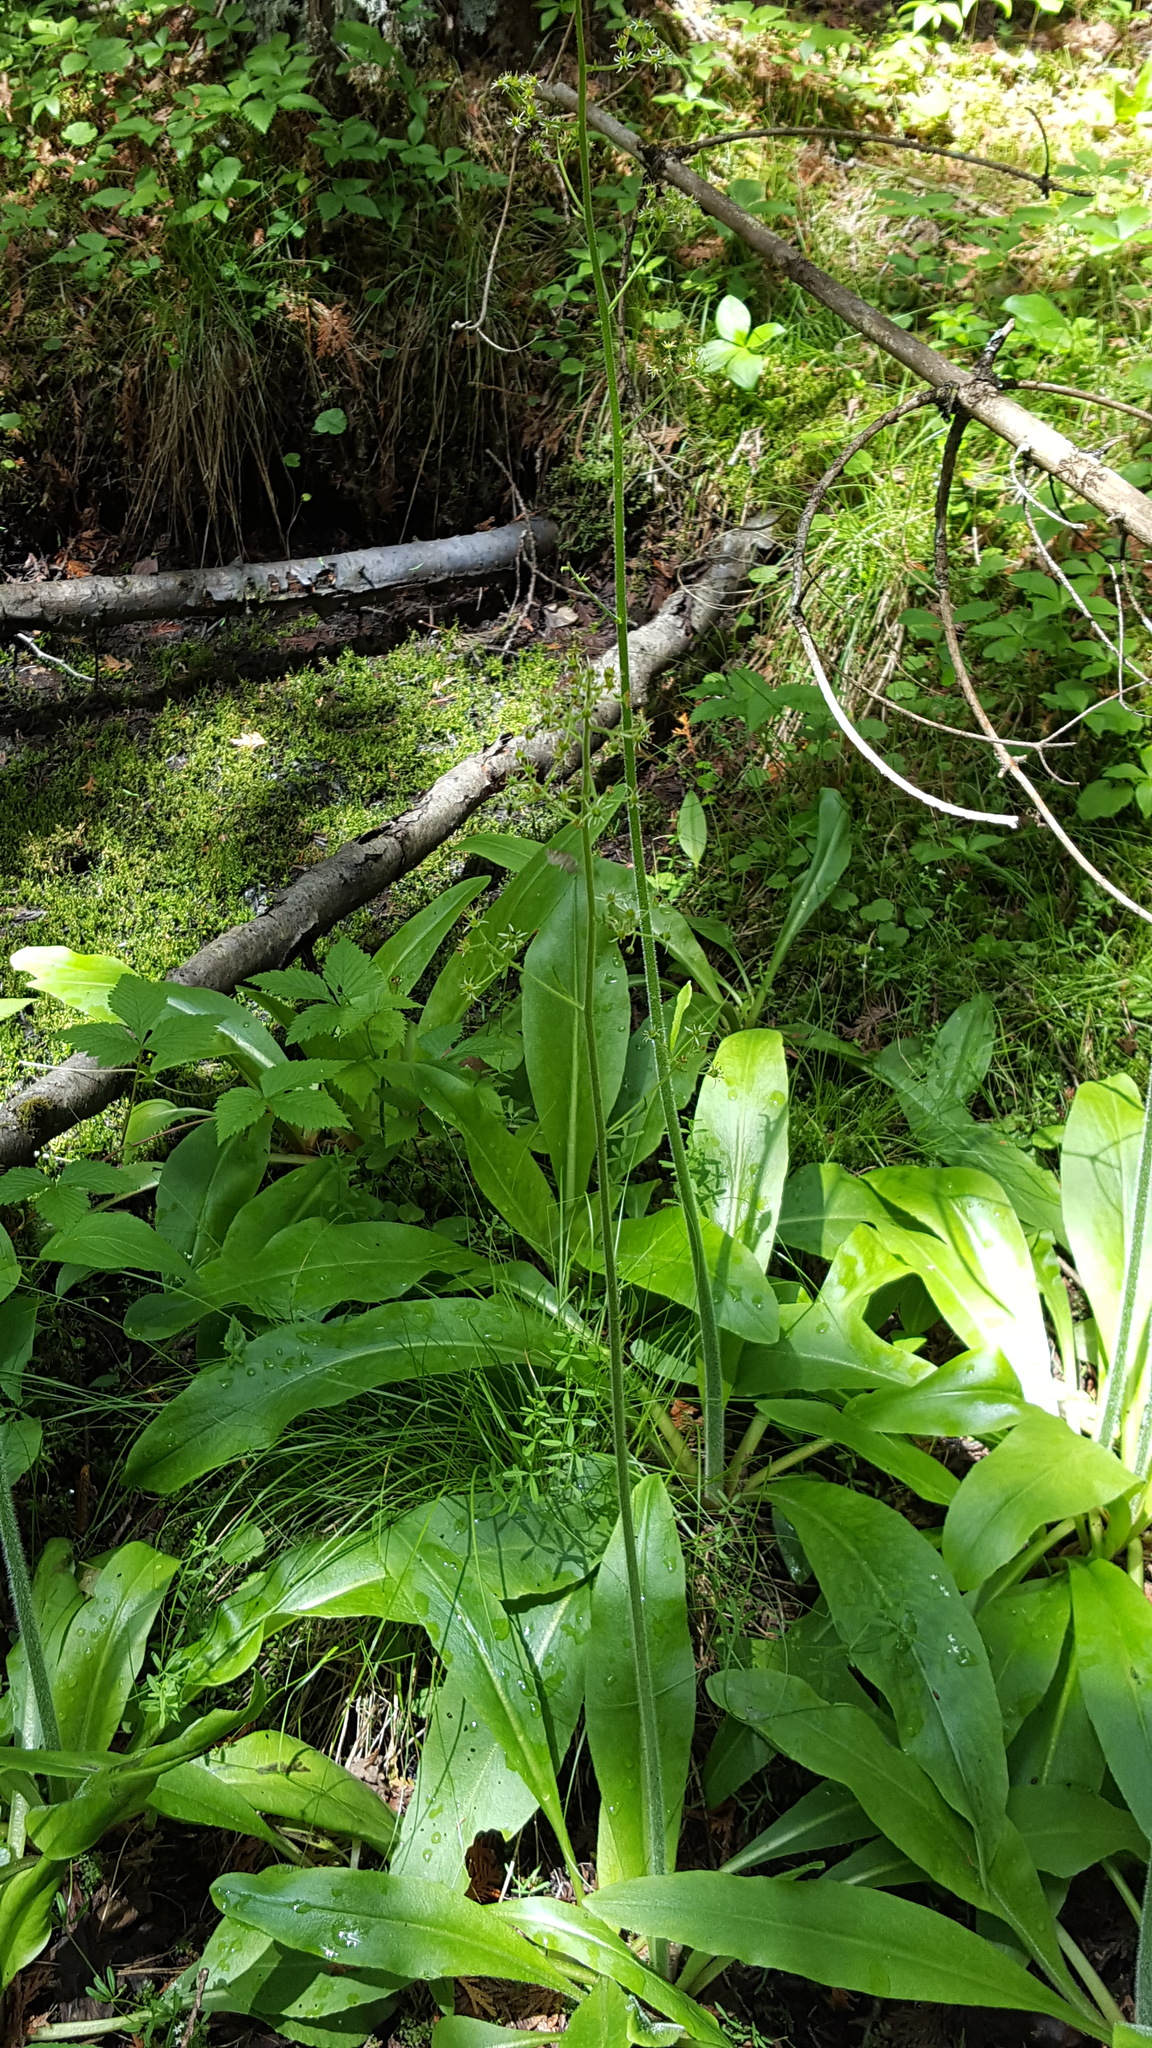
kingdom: Plantae
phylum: Tracheophyta
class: Magnoliopsida
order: Saxifragales
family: Saxifragaceae
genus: Micranthes
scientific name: Micranthes pensylvanica
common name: Marsh saxifrage
